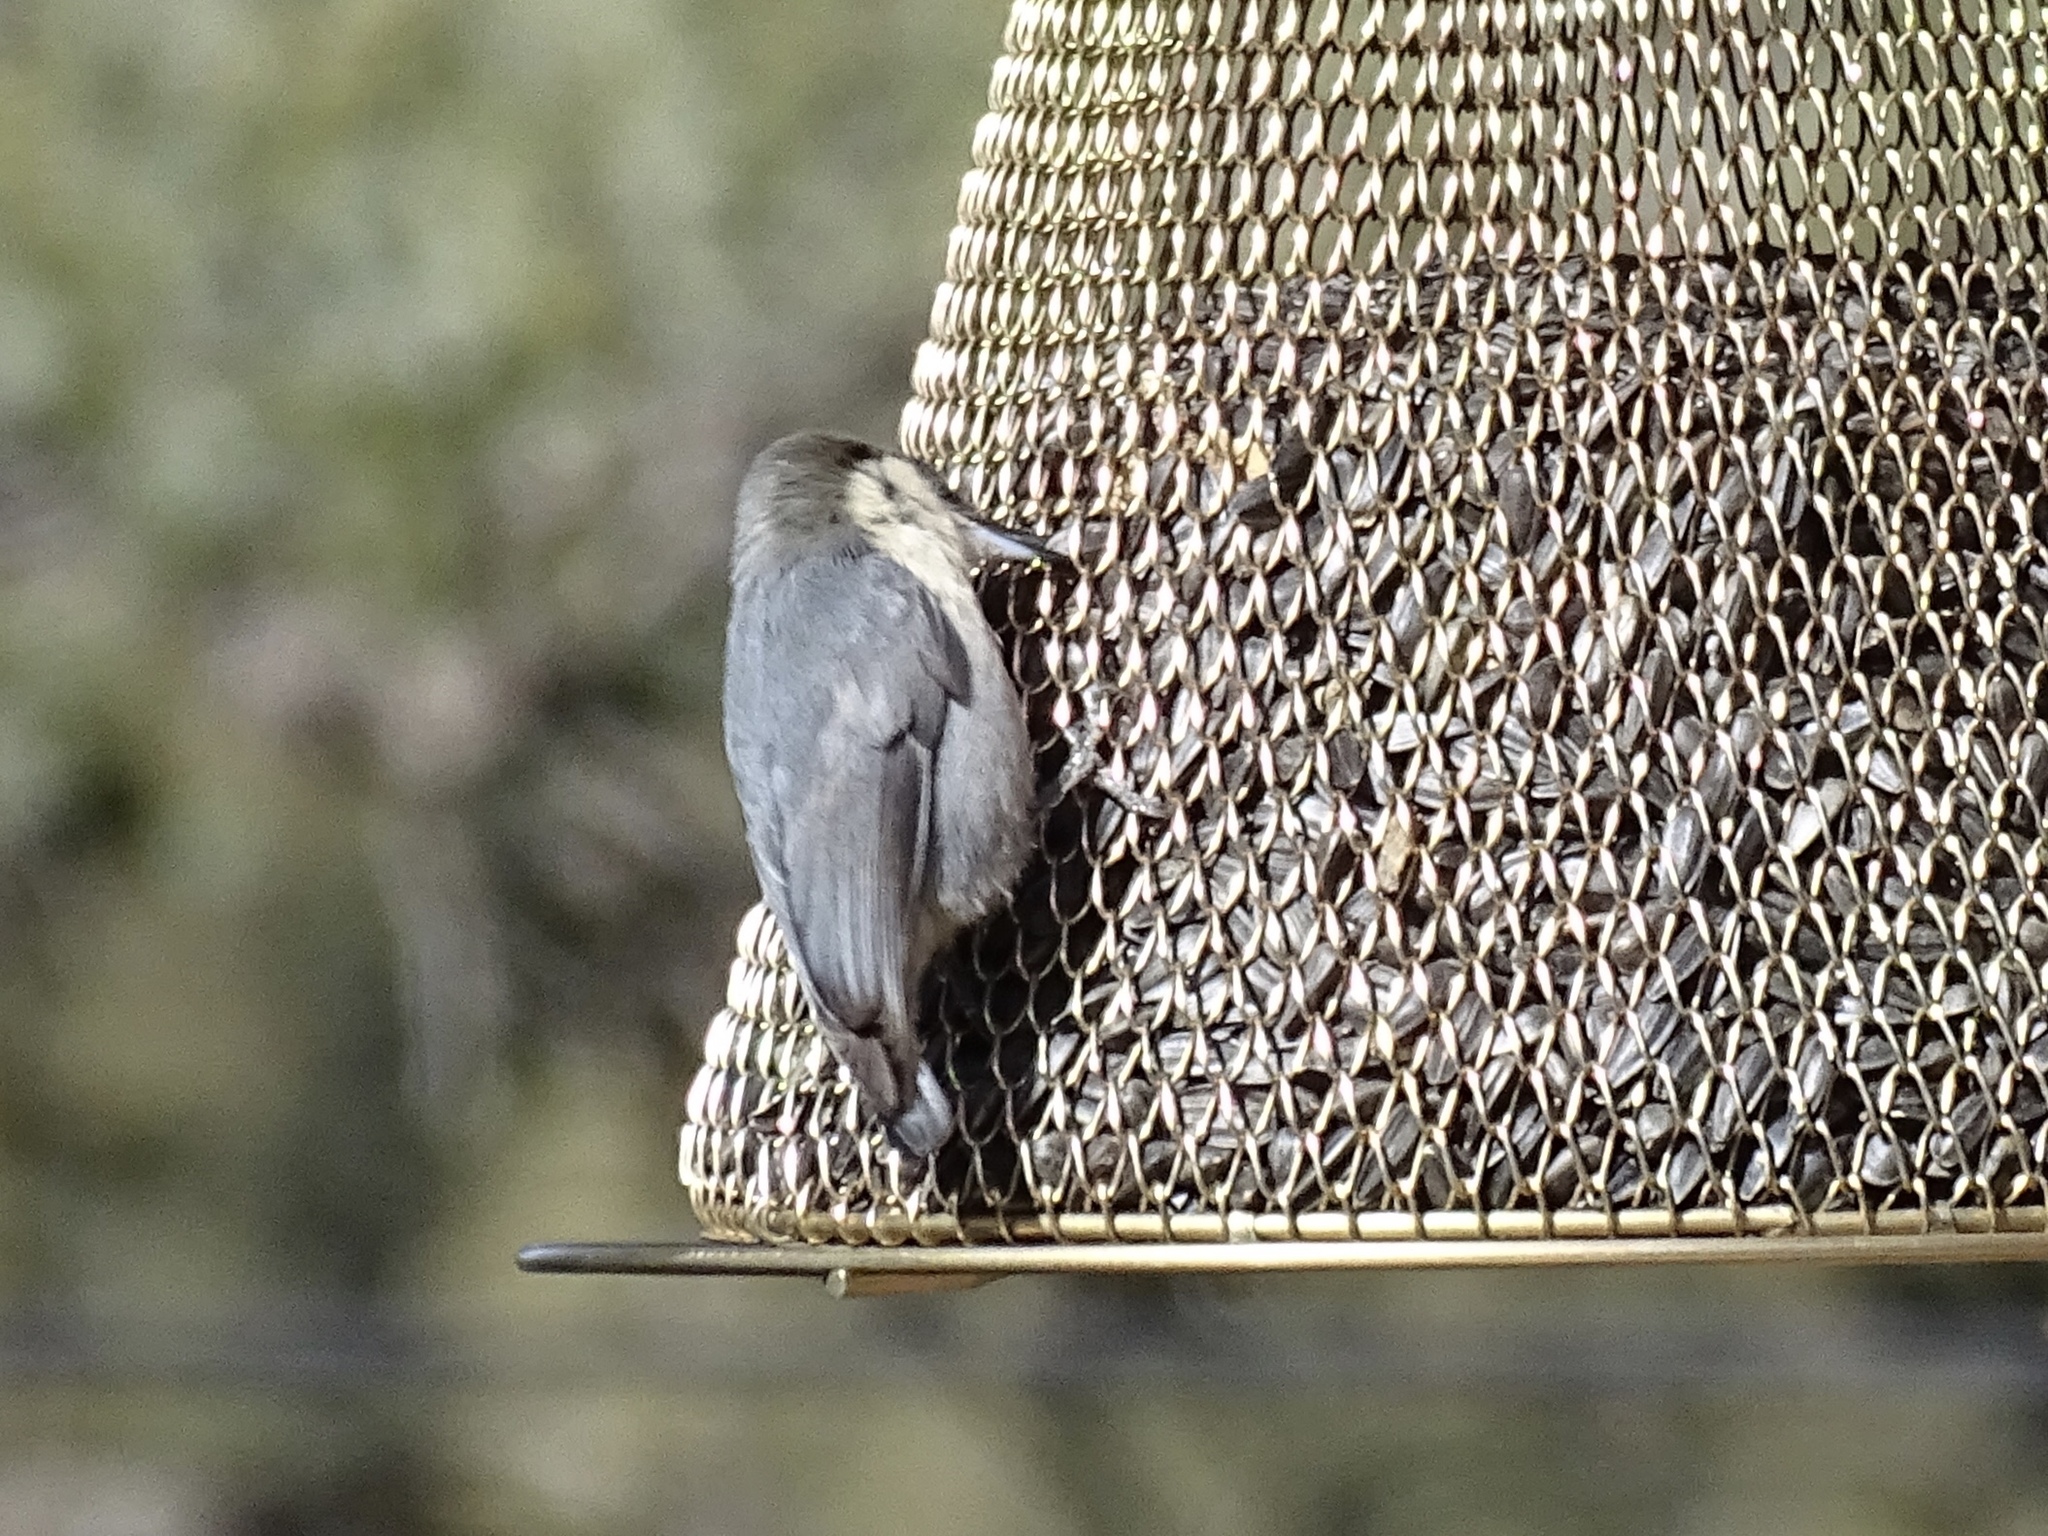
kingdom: Animalia
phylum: Chordata
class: Aves
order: Passeriformes
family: Sittidae
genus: Sitta
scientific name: Sitta pygmaea
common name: Pygmy nuthatch
